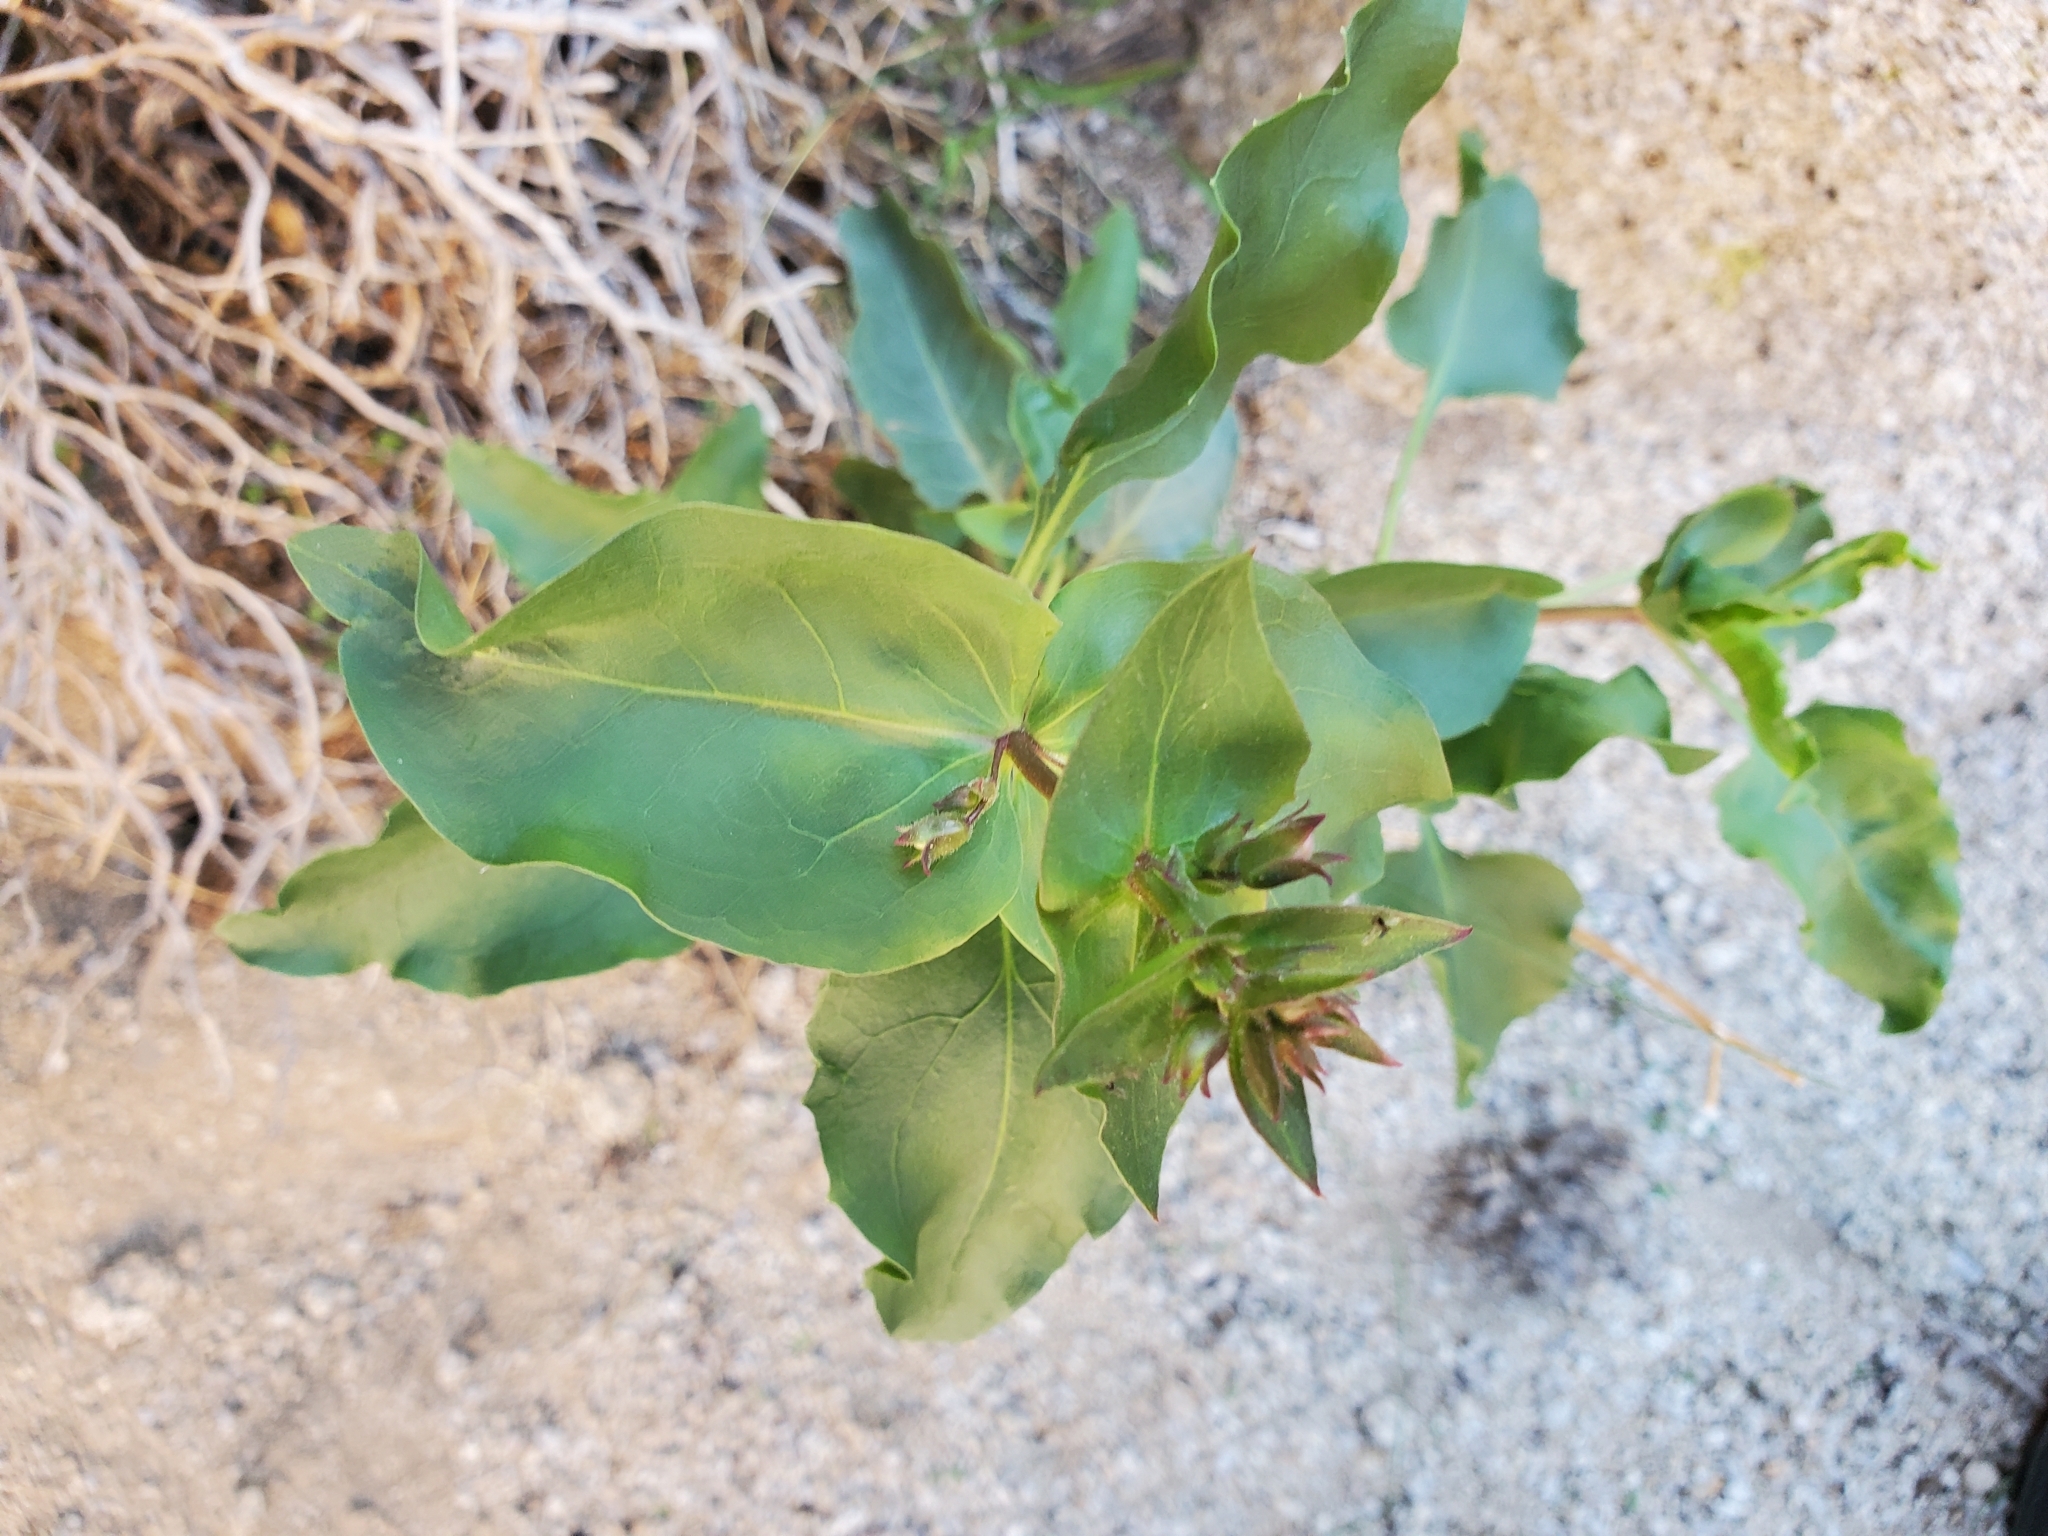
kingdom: Plantae
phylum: Tracheophyta
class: Magnoliopsida
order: Lamiales
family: Plantaginaceae
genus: Penstemon
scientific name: Penstemon clevelandii
